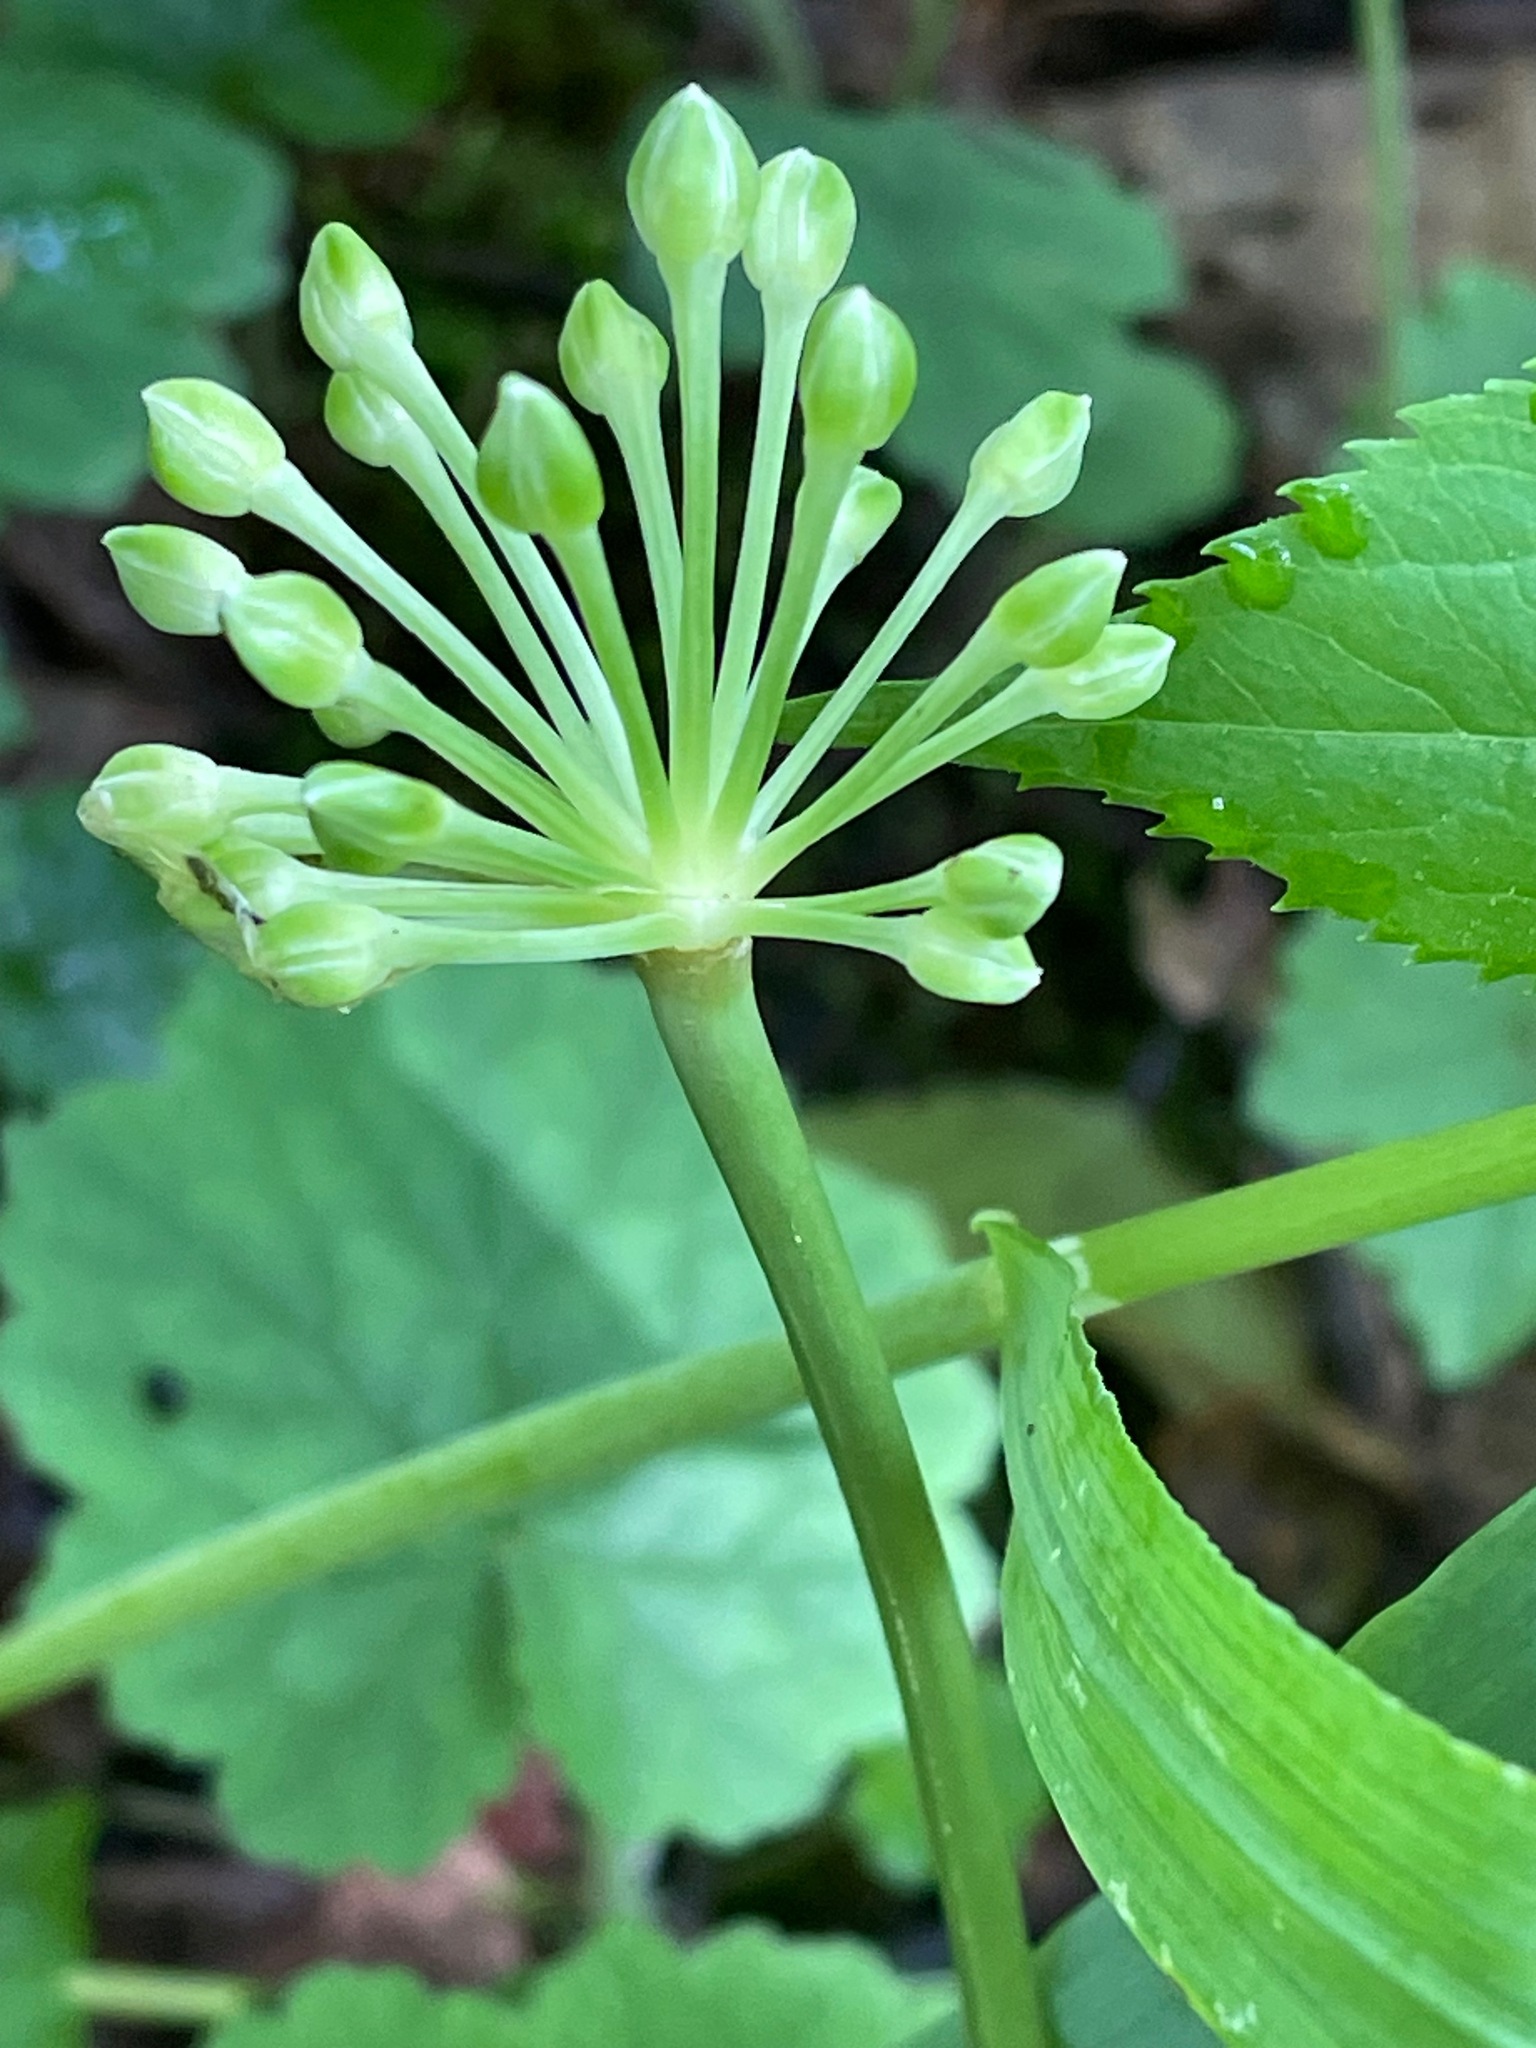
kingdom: Plantae
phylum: Tracheophyta
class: Liliopsida
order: Asparagales
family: Amaryllidaceae
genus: Allium
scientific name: Allium tricoccum
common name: Ramp
